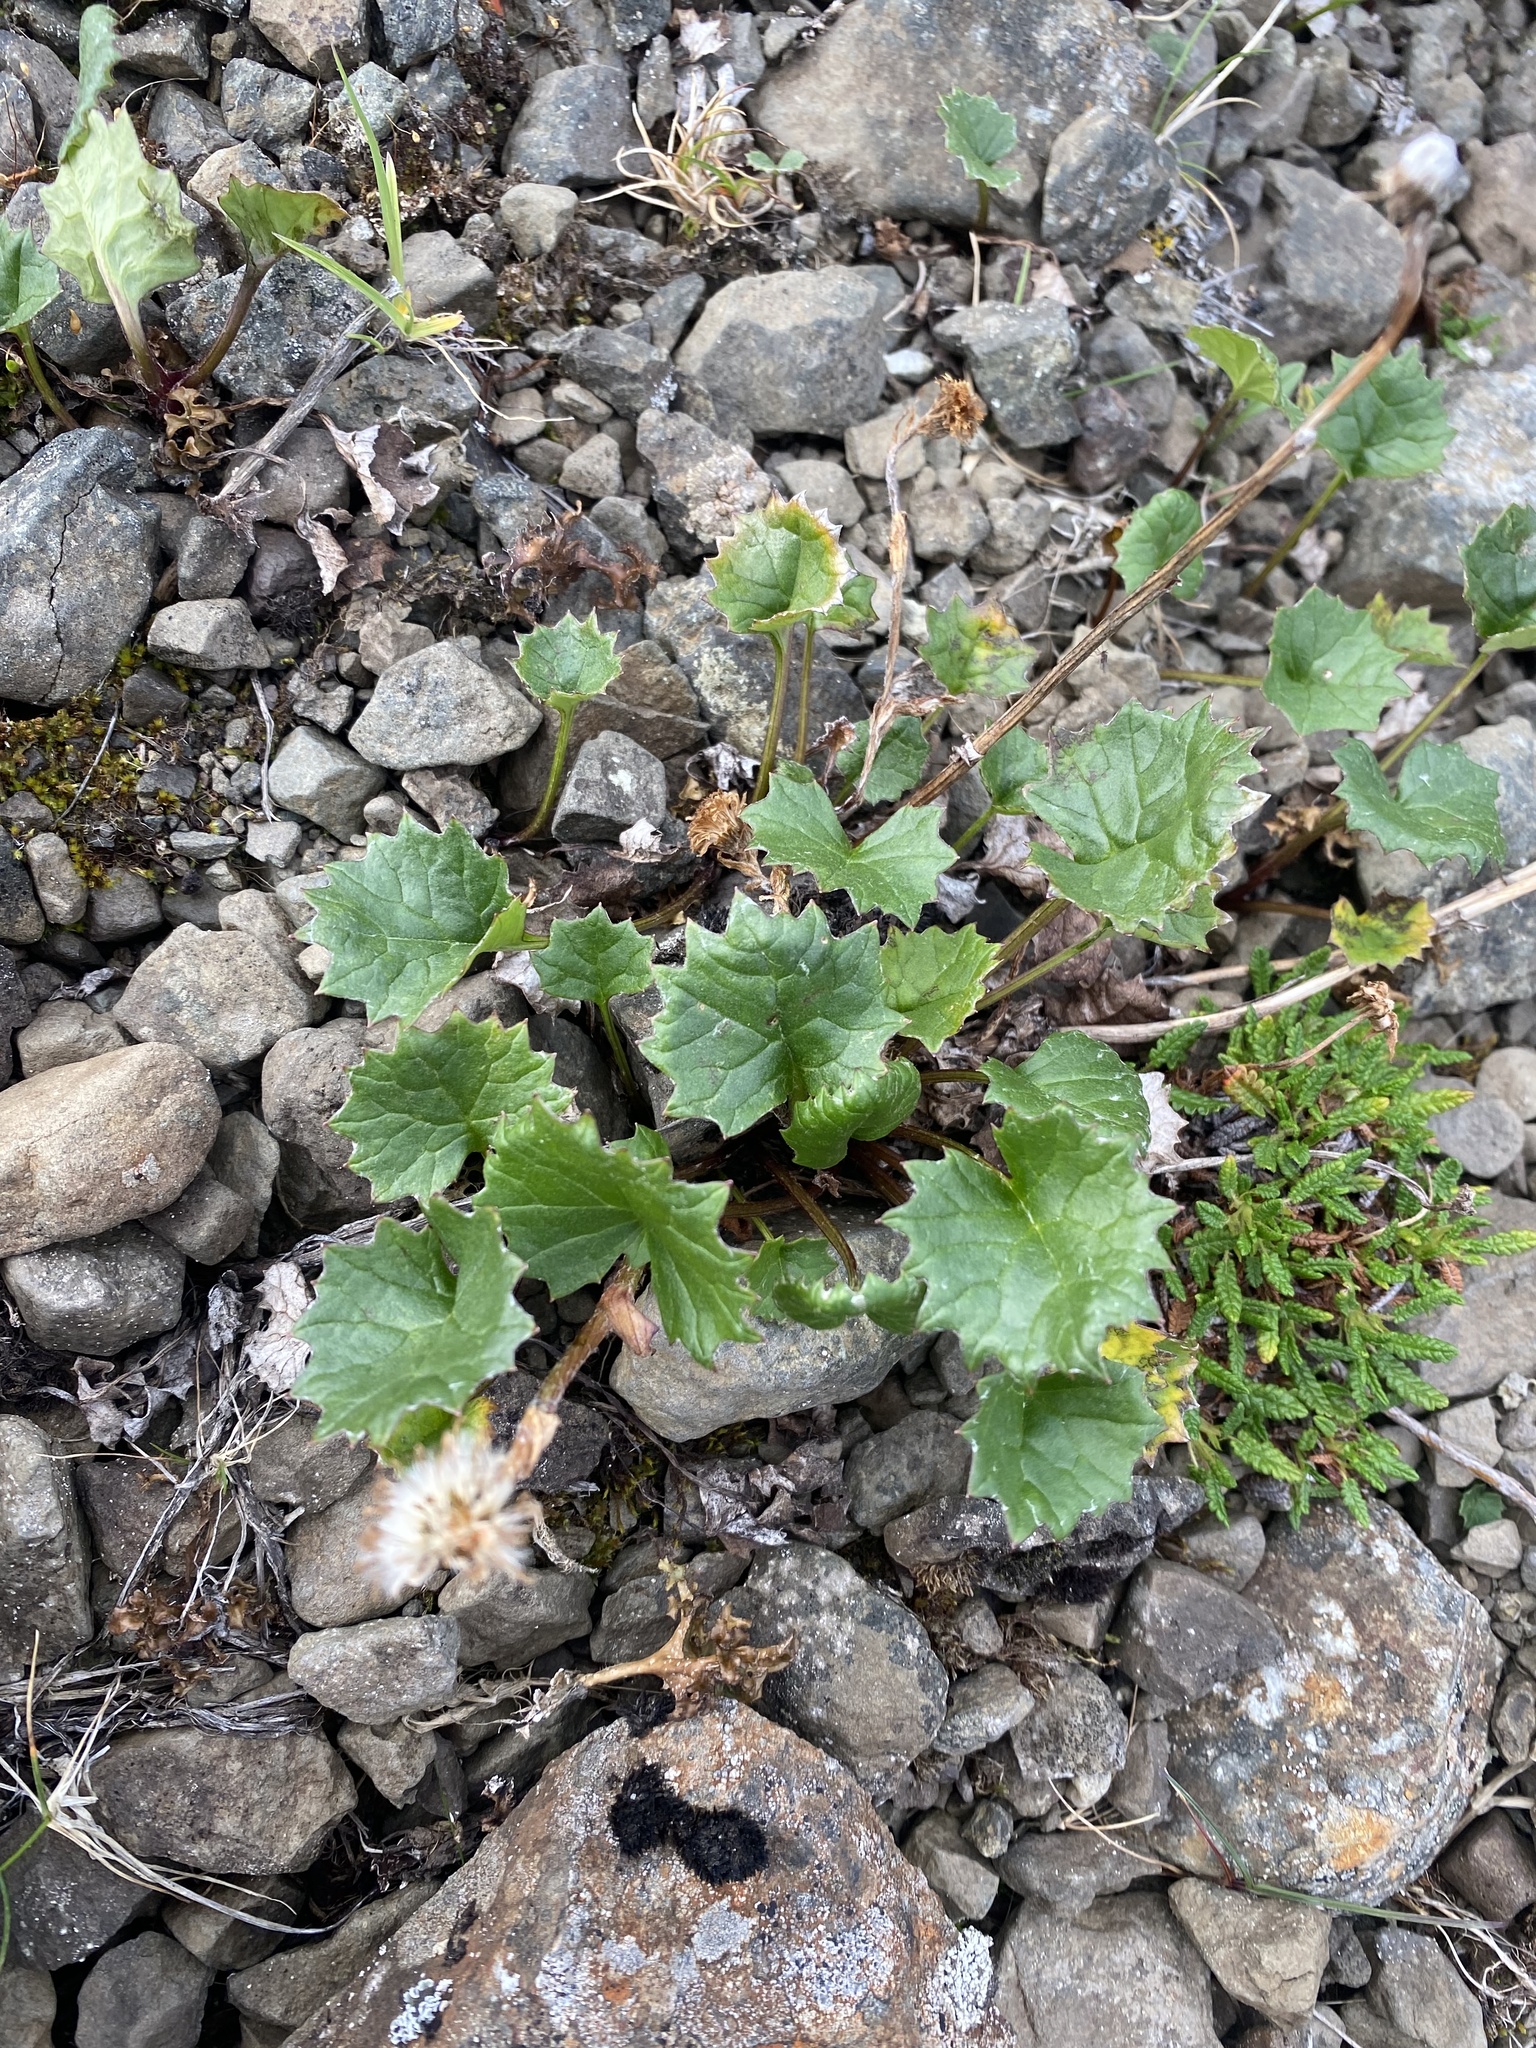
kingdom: Plantae
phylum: Tracheophyta
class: Magnoliopsida
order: Asterales
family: Asteraceae
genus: Endocellion
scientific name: Endocellion glaciale
